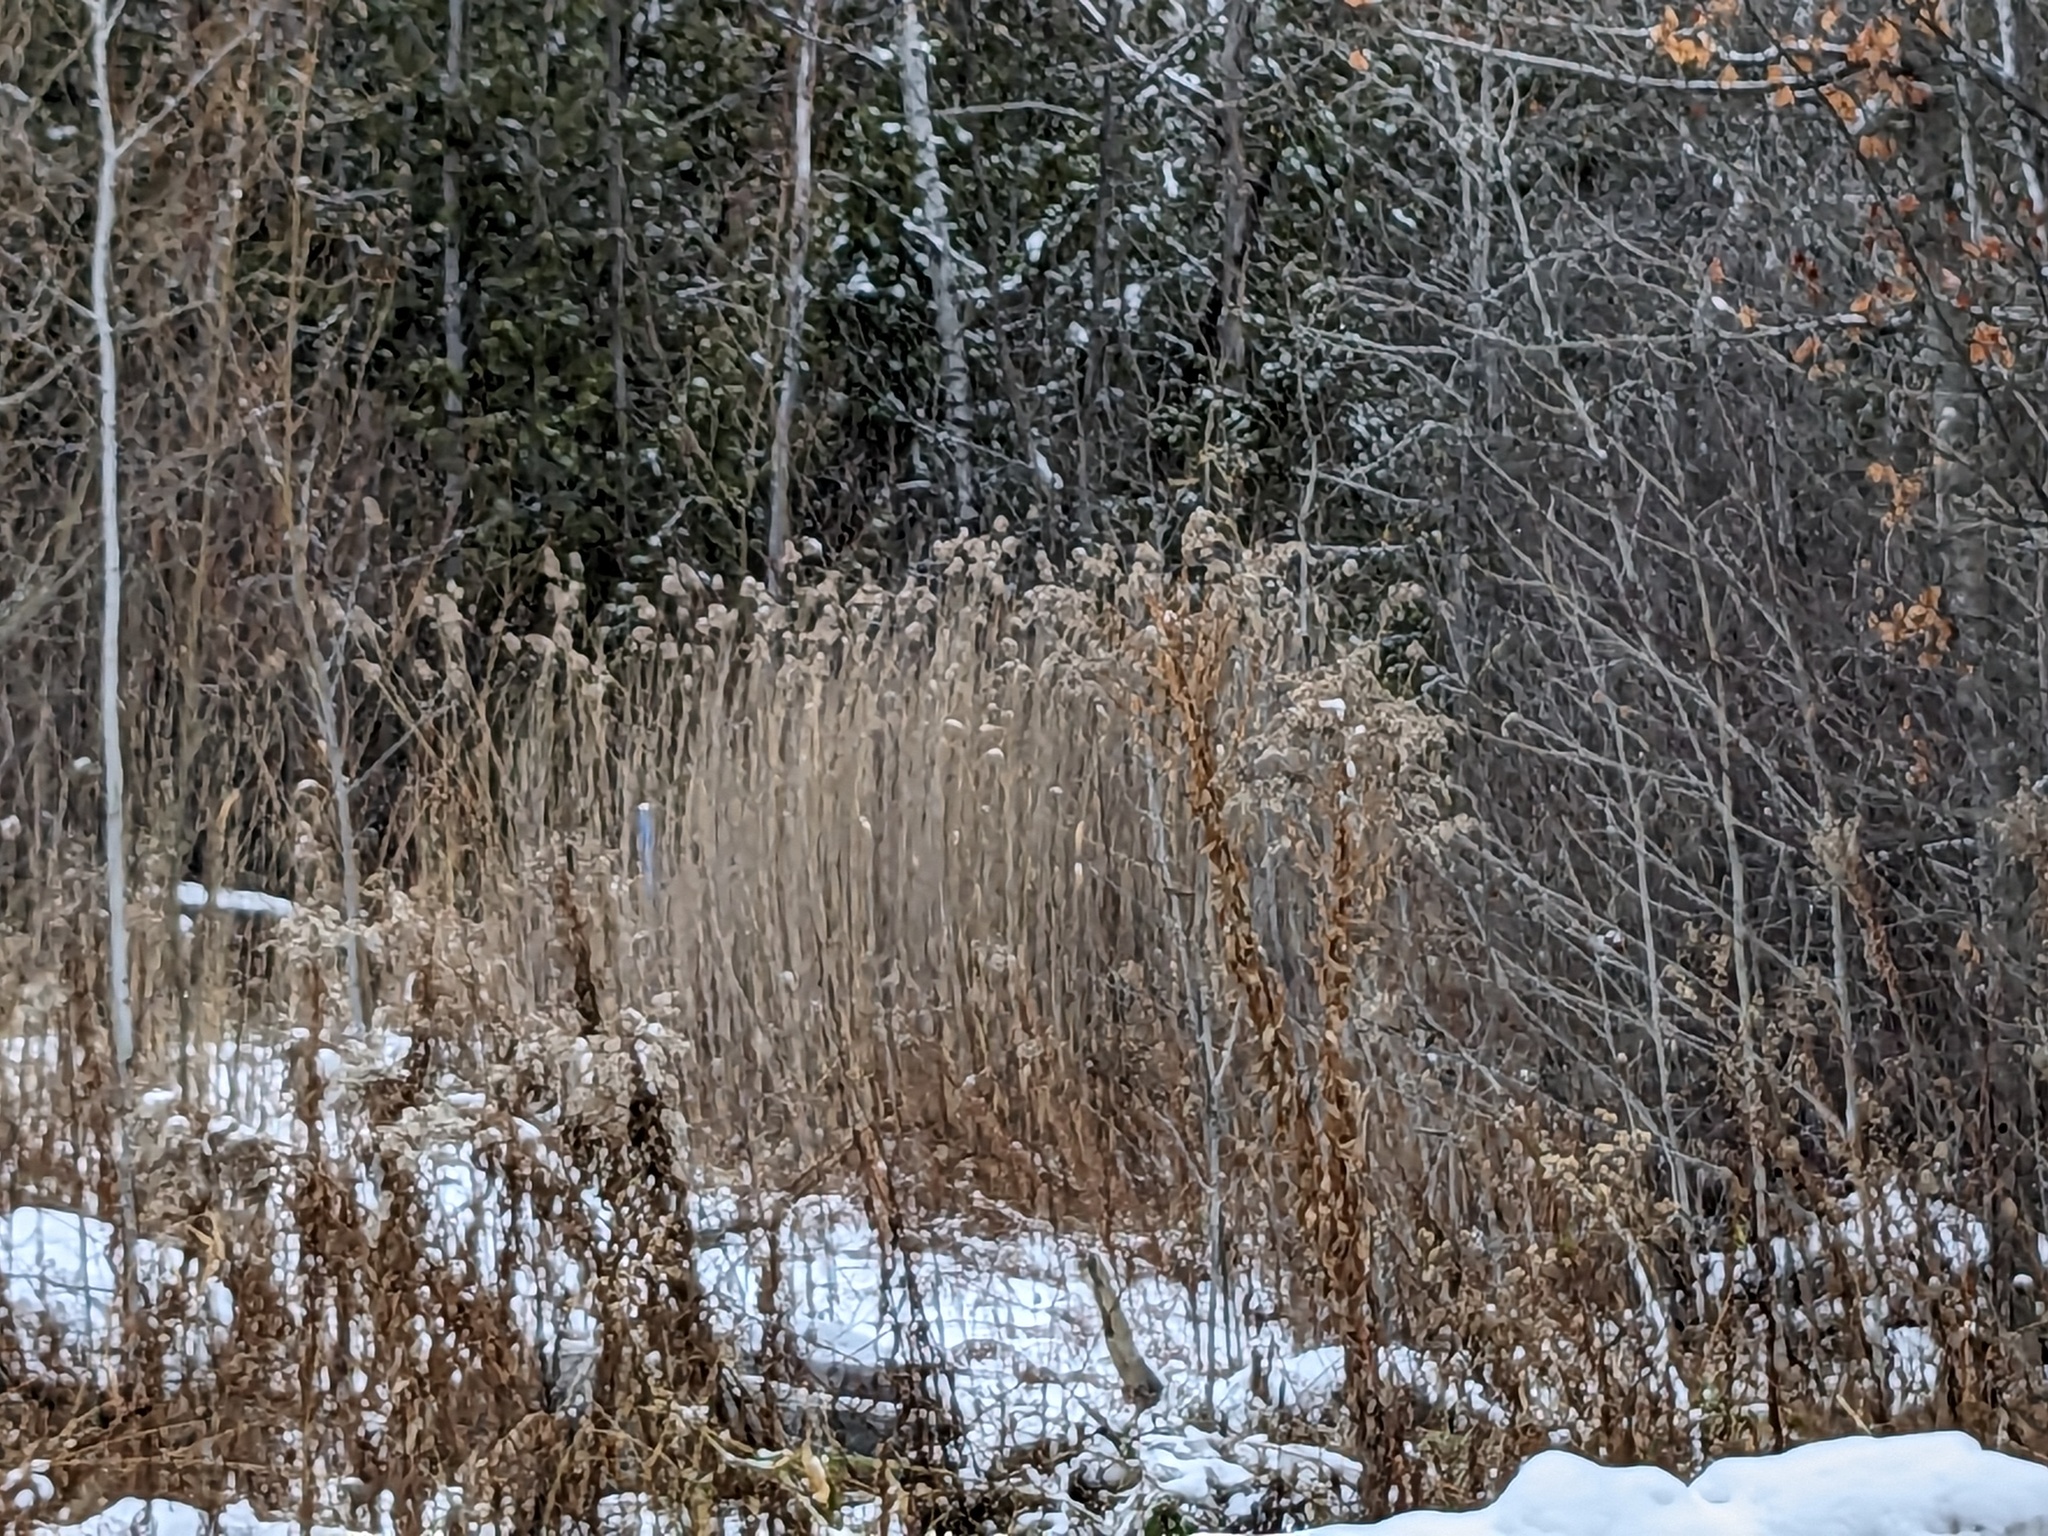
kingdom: Plantae
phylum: Tracheophyta
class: Liliopsida
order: Poales
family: Poaceae
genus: Phragmites
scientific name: Phragmites australis
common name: Common reed
